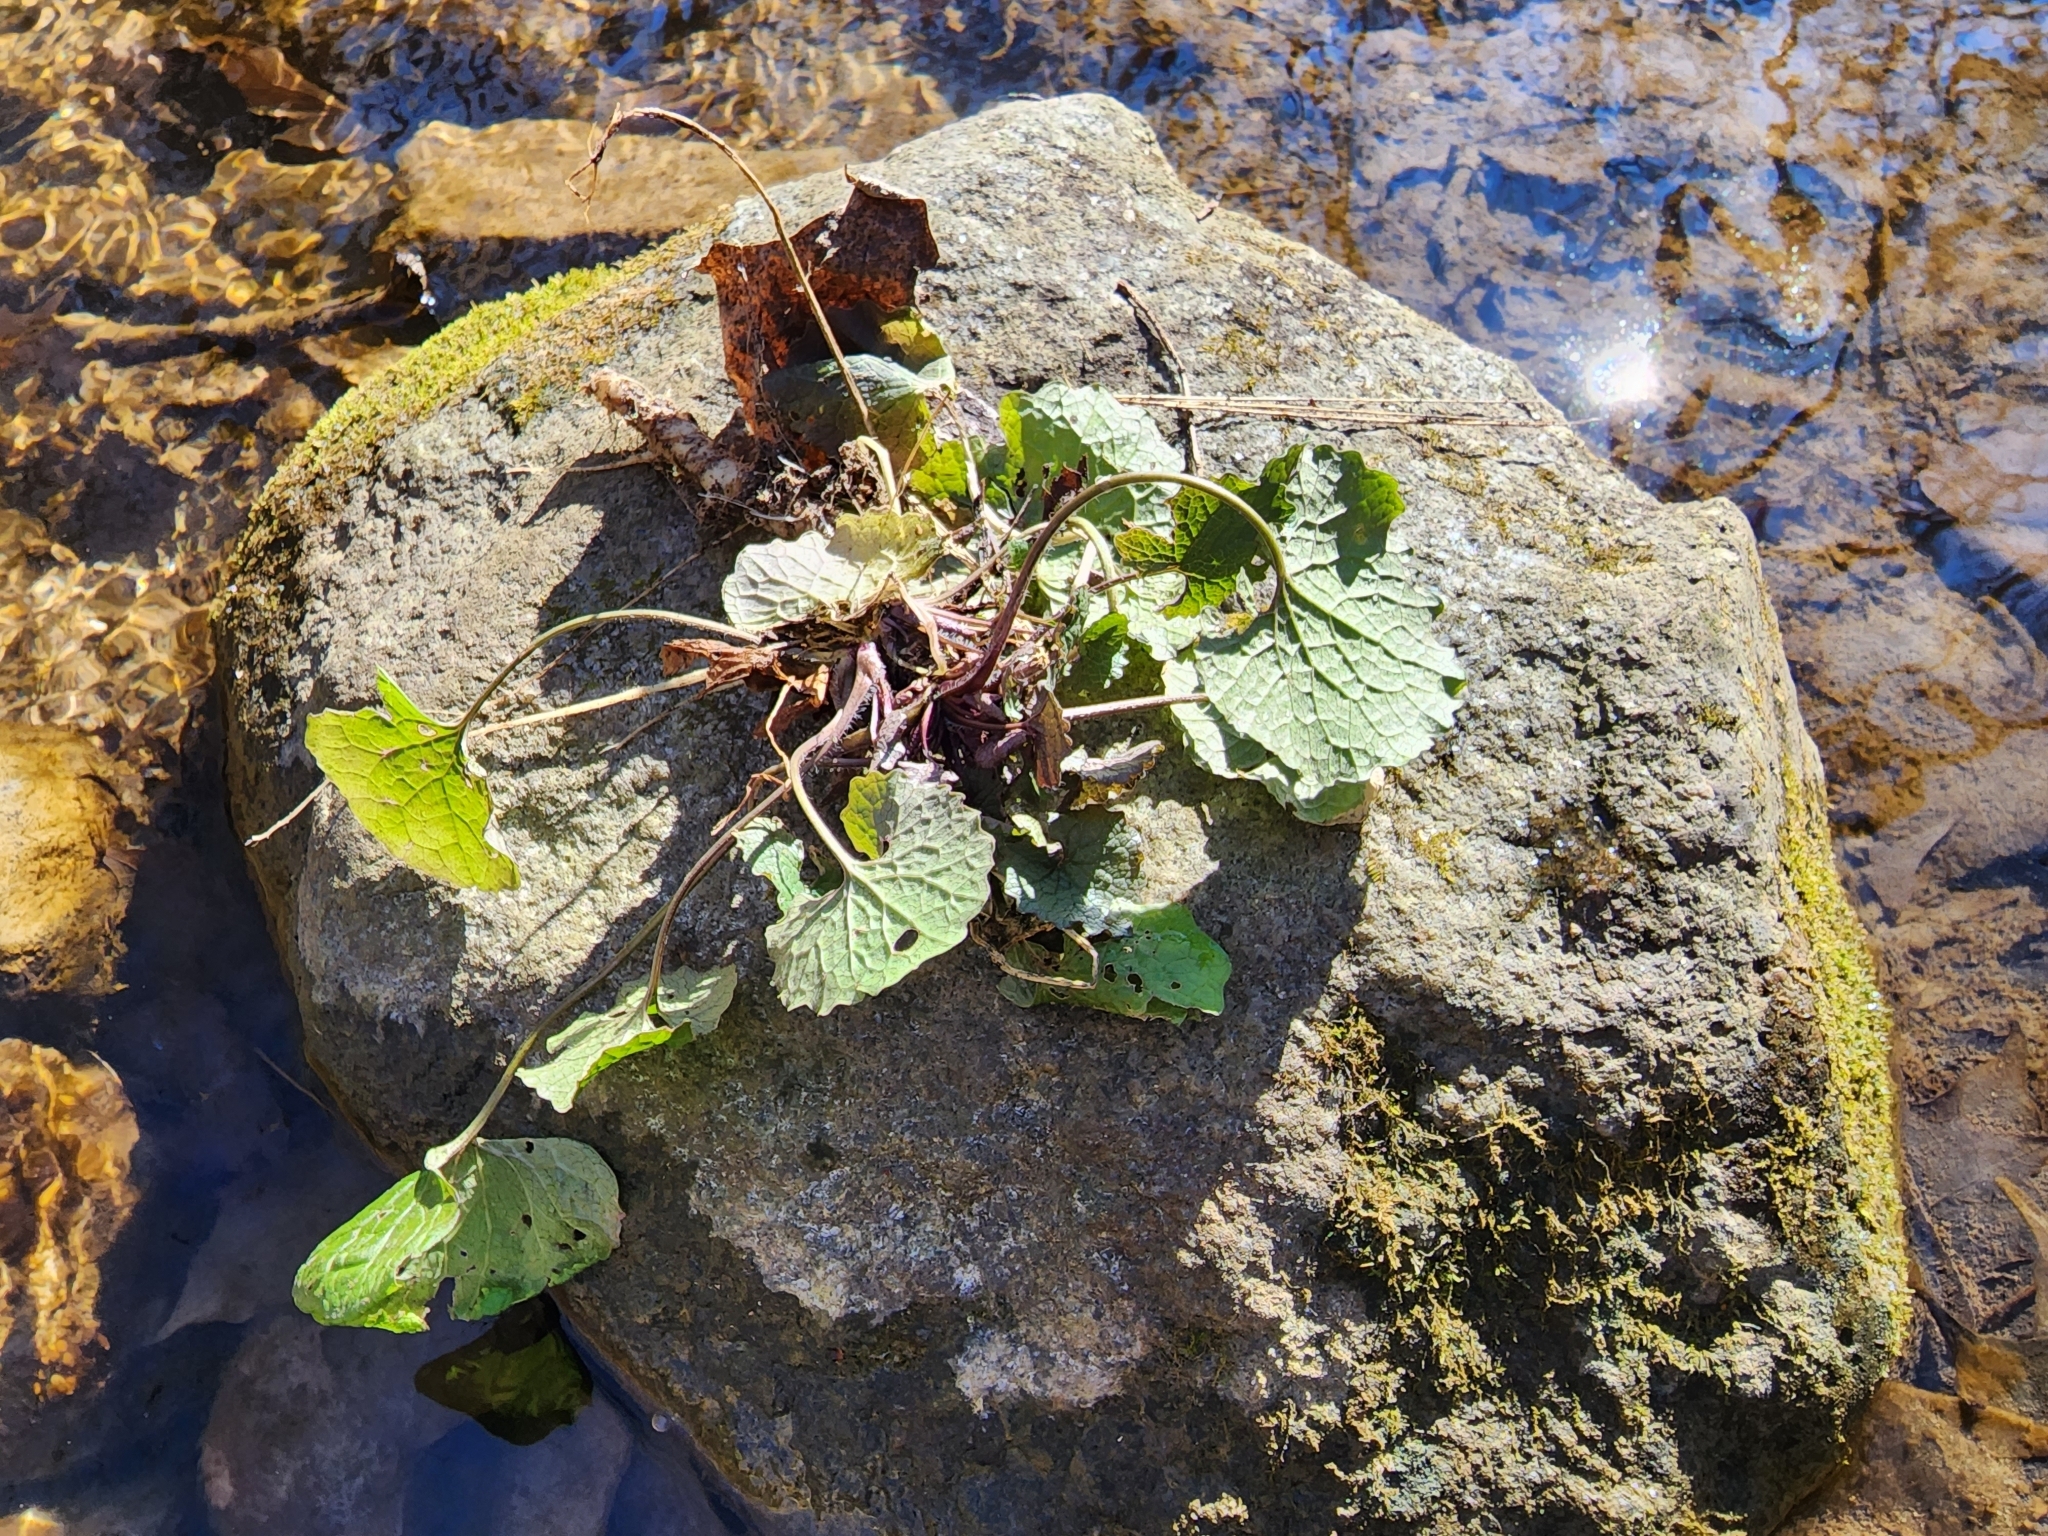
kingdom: Plantae
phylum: Tracheophyta
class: Magnoliopsida
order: Brassicales
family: Brassicaceae
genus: Alliaria
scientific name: Alliaria petiolata
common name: Garlic mustard
